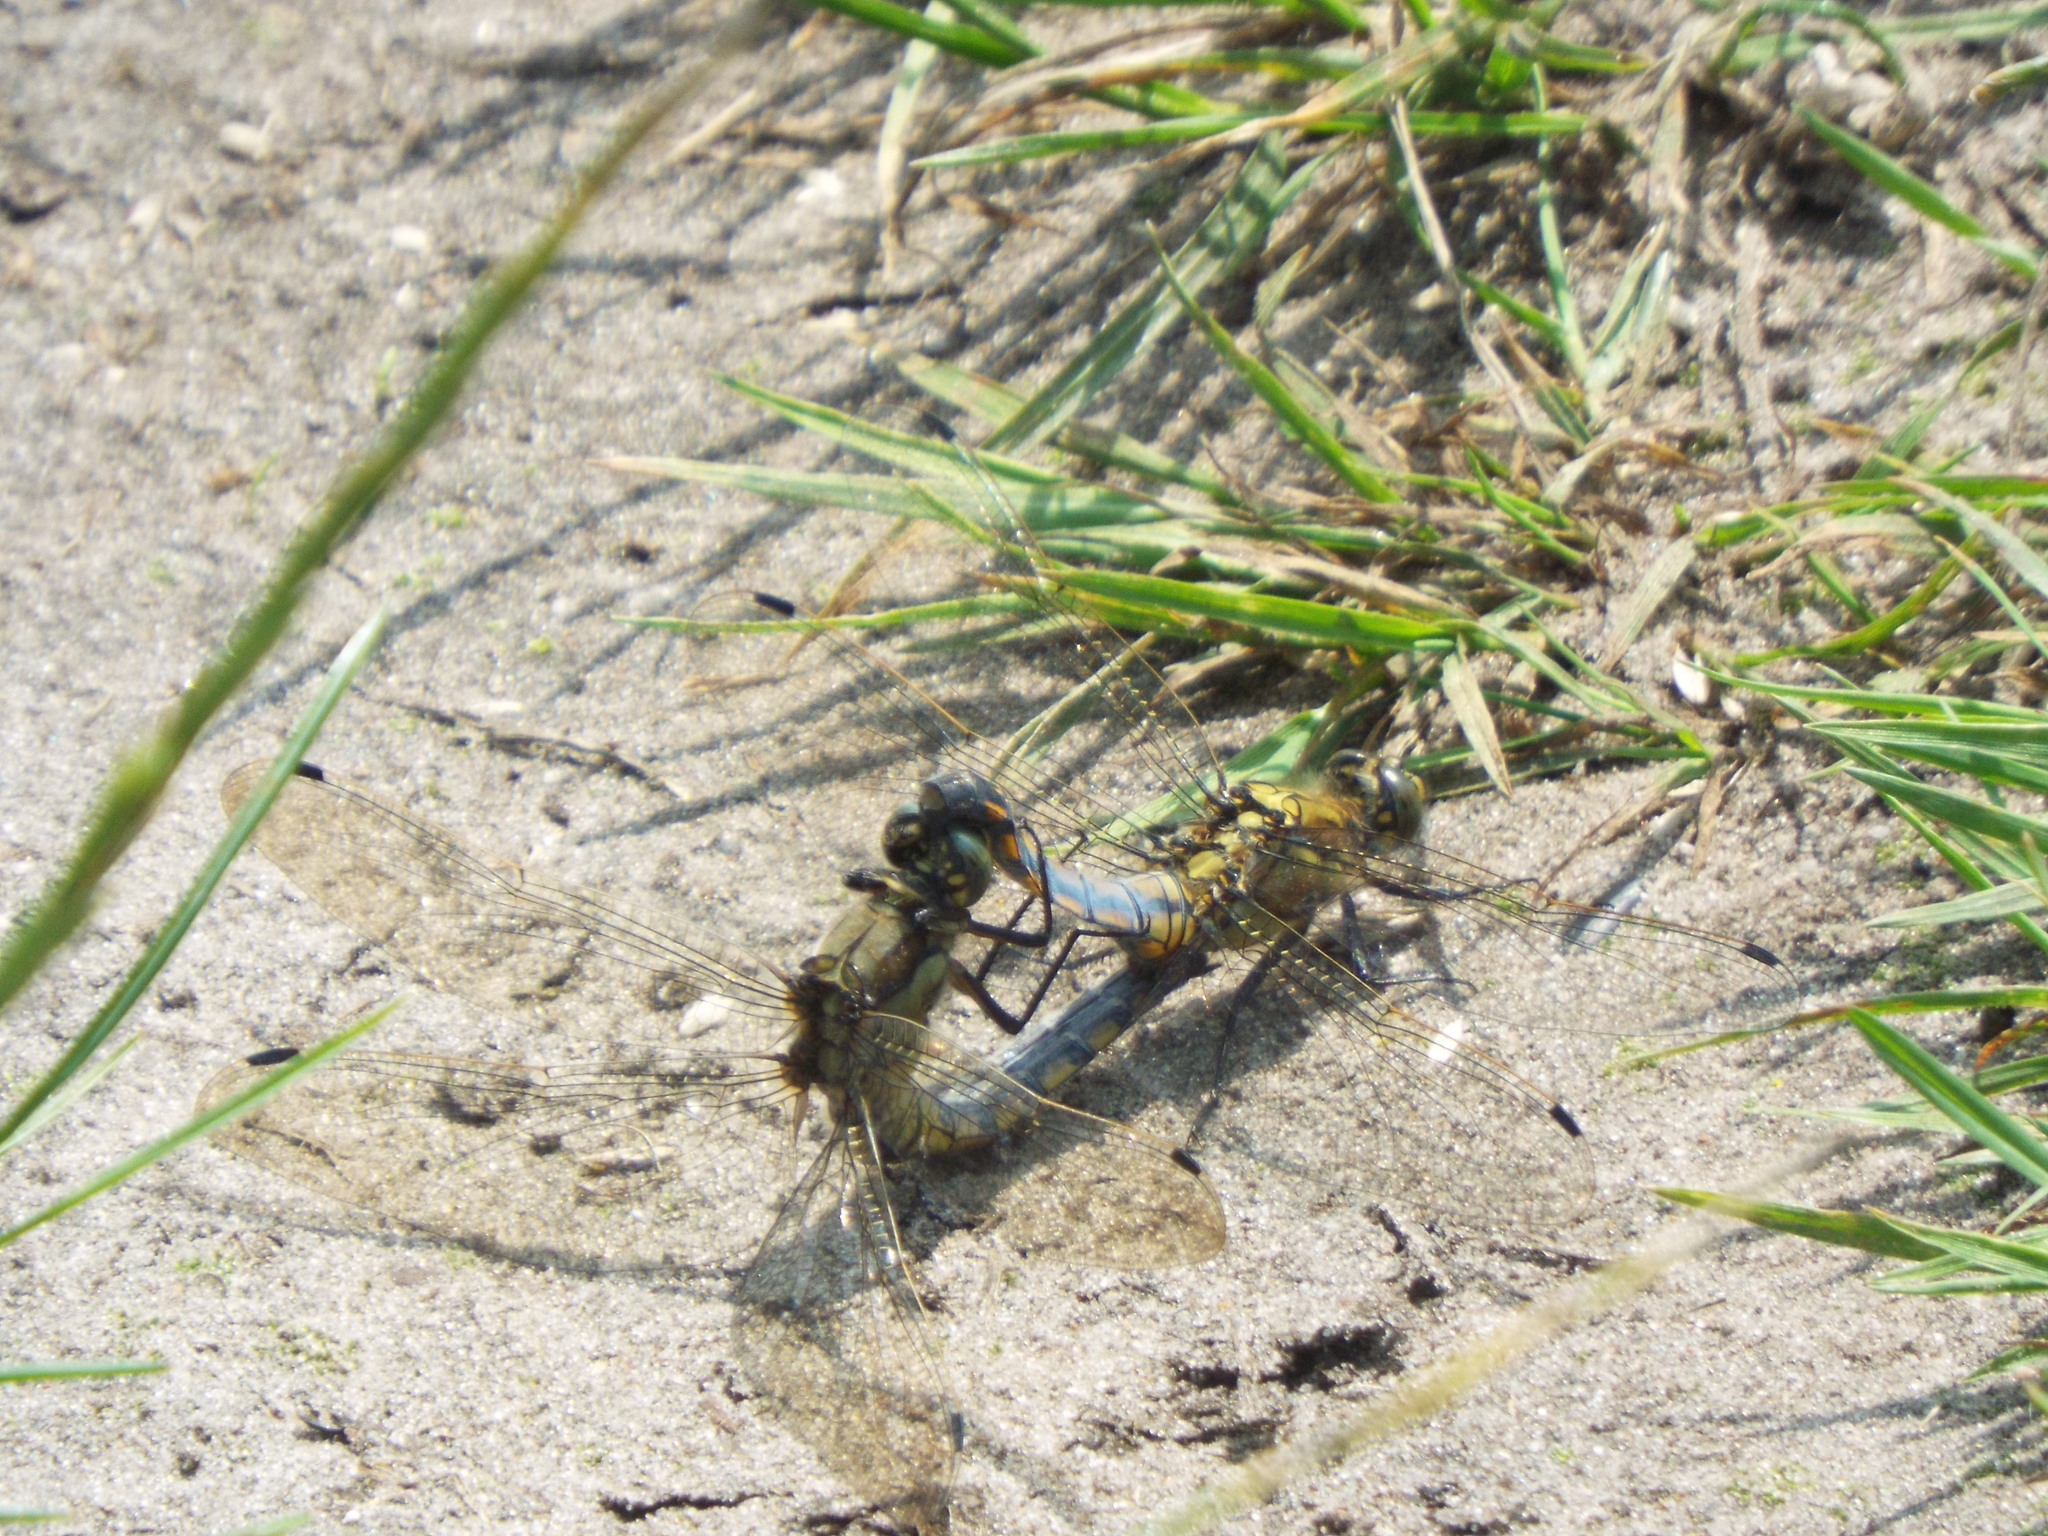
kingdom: Animalia
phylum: Arthropoda
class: Insecta
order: Odonata
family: Libellulidae
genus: Orthetrum
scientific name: Orthetrum cancellatum
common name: Black-tailed skimmer
